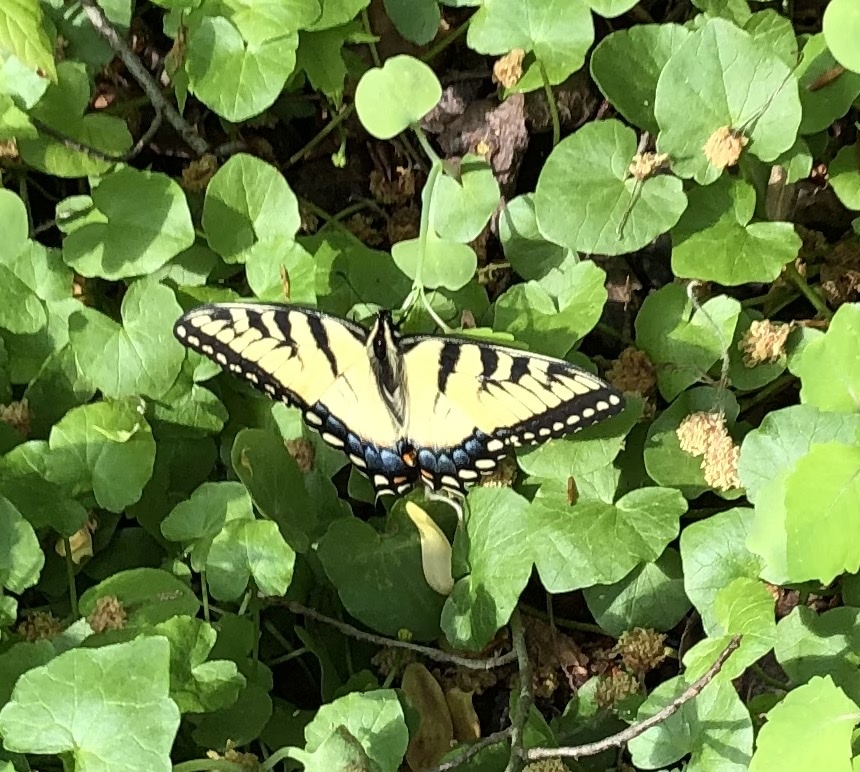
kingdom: Animalia
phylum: Arthropoda
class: Insecta
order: Lepidoptera
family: Papilionidae
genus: Papilio
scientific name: Papilio glaucus
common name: Tiger swallowtail
